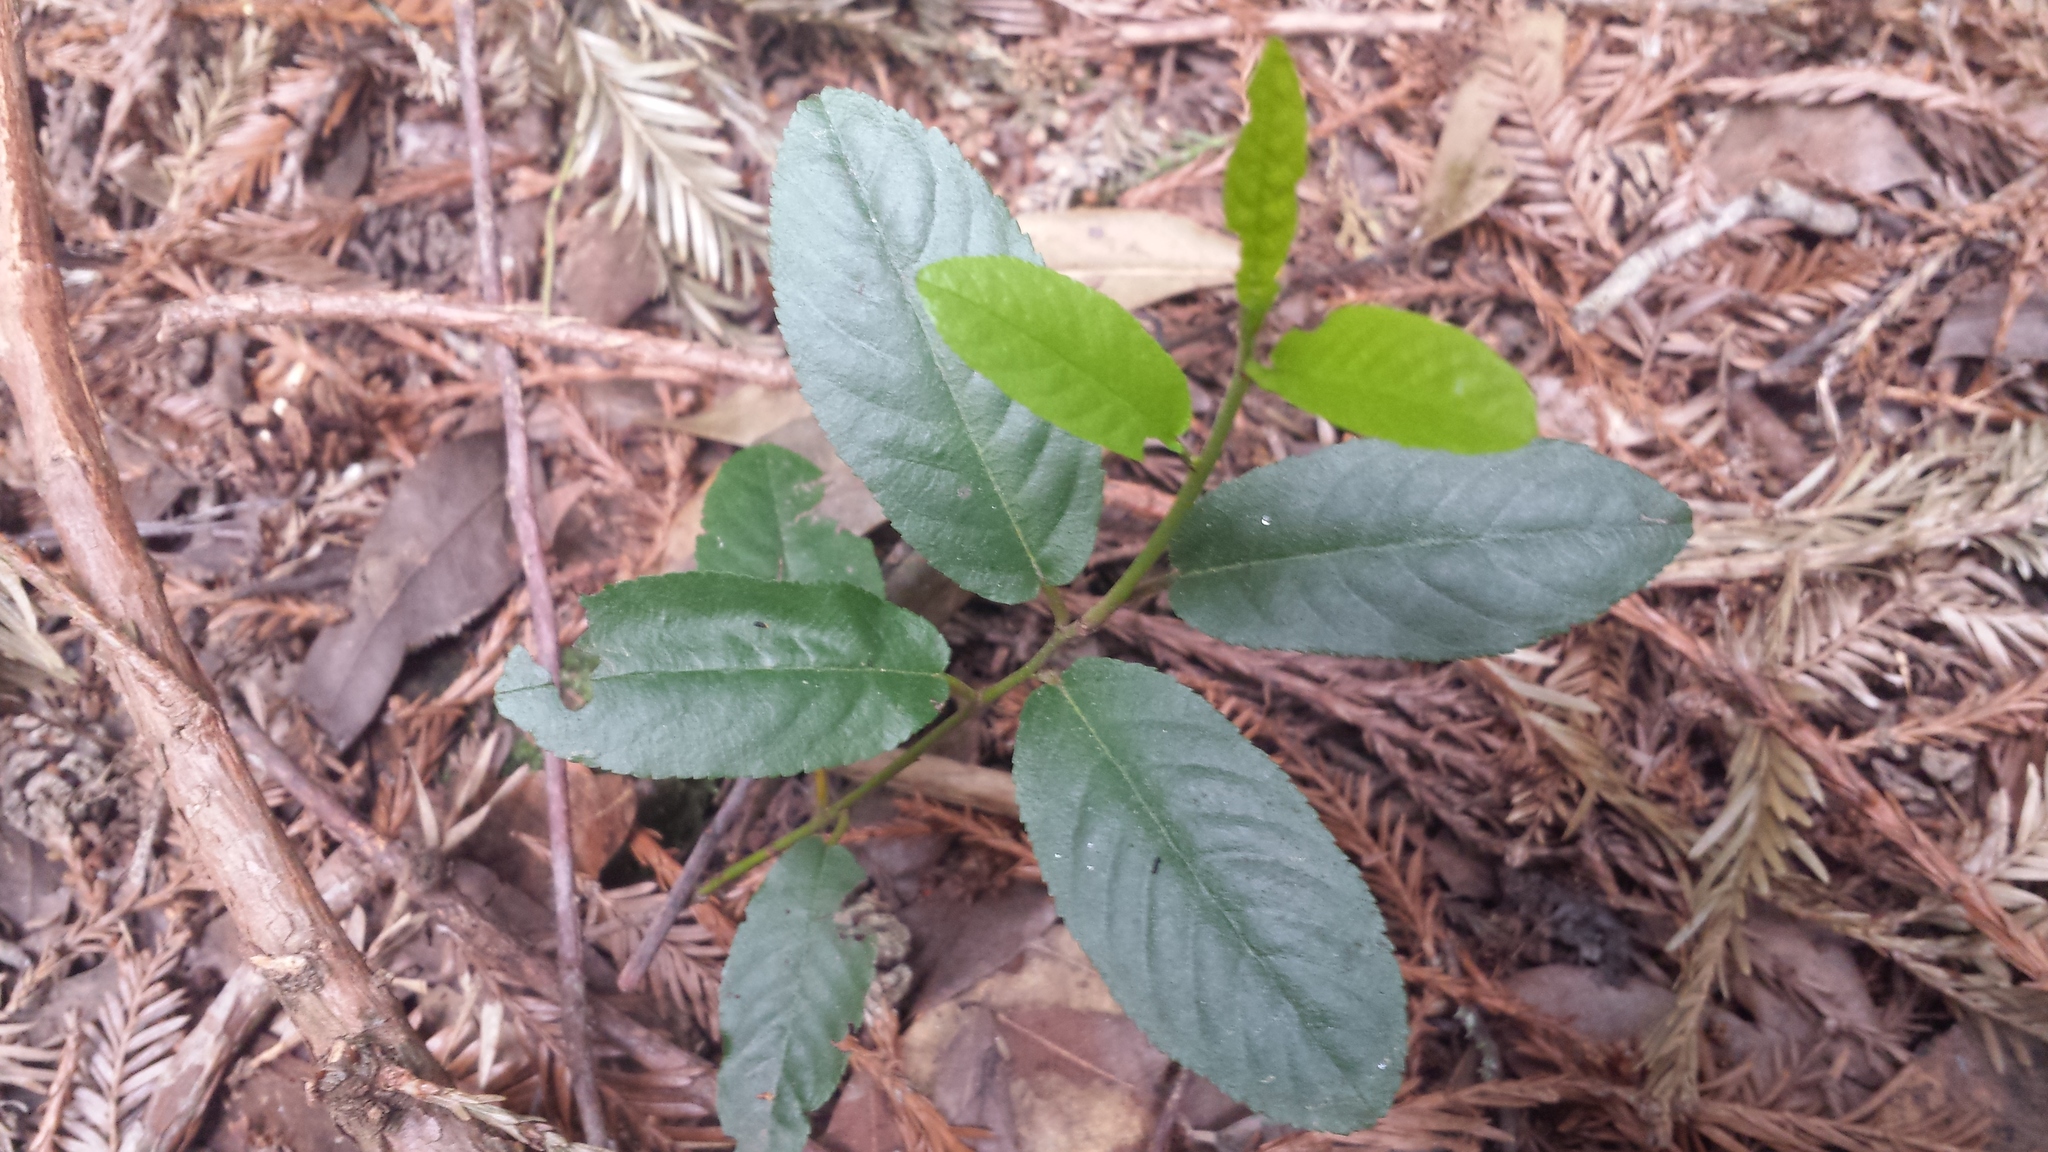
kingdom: Plantae
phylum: Tracheophyta
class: Magnoliopsida
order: Rosales
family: Rhamnaceae
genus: Frangula
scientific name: Frangula californica
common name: California buckthorn
